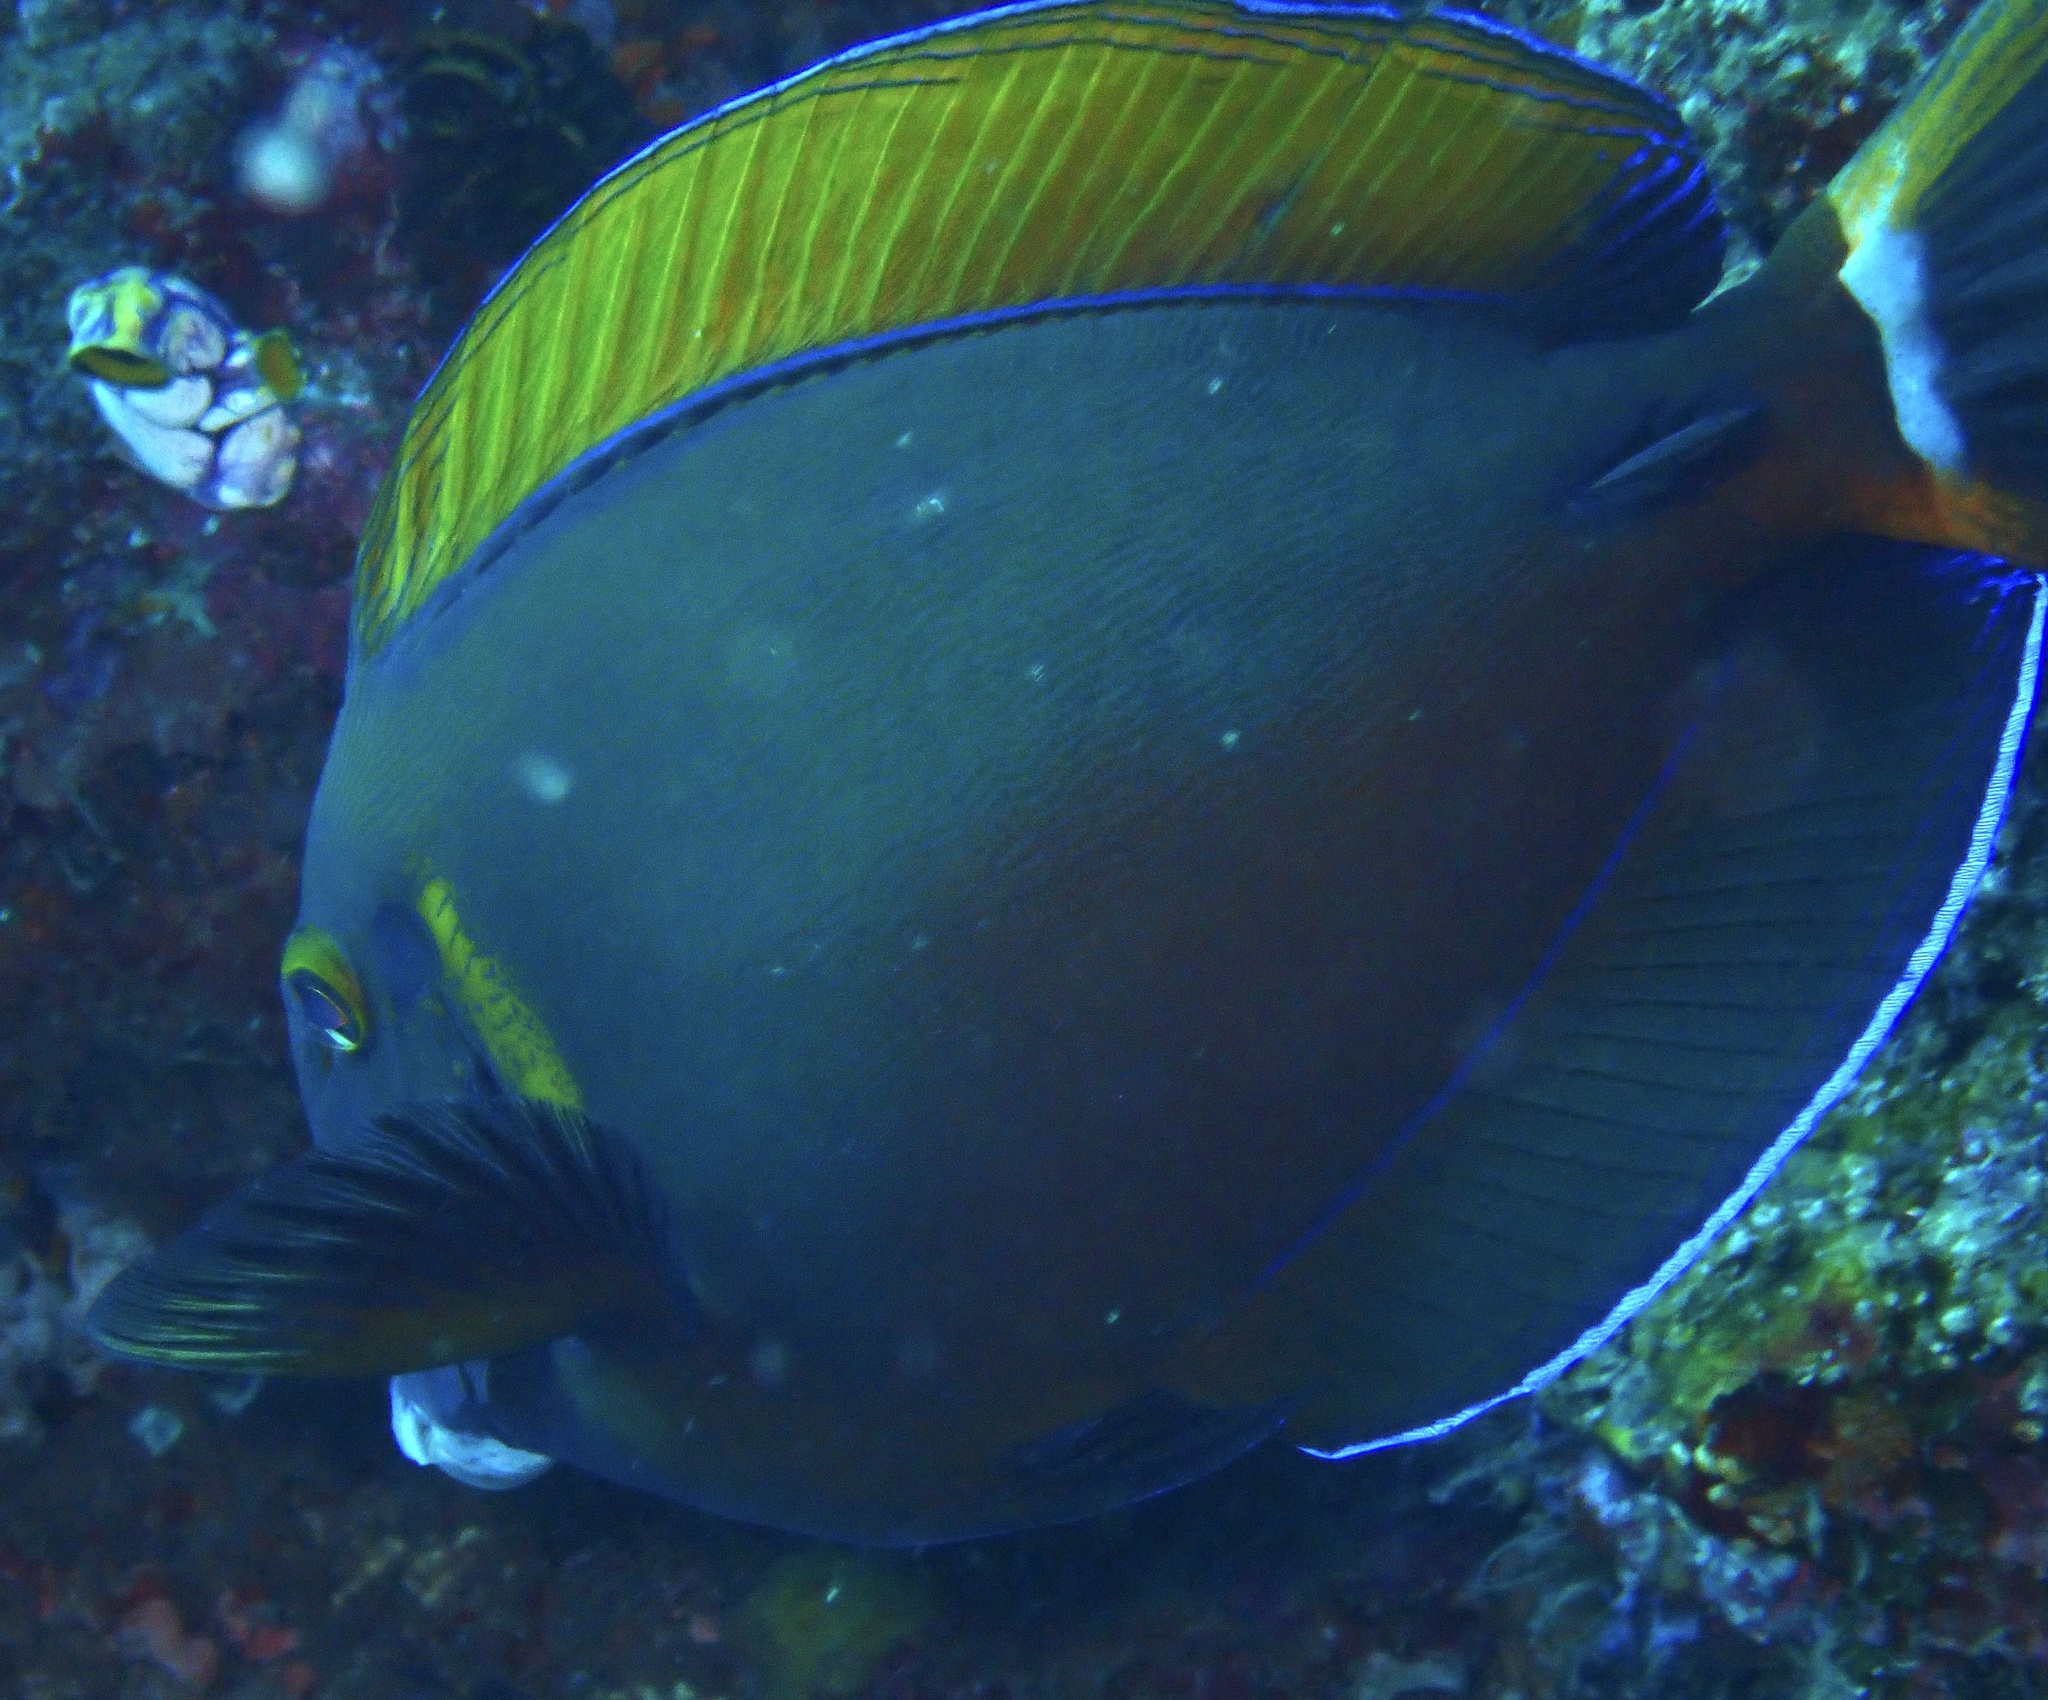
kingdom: Animalia
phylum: Chordata
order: Perciformes
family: Acanthuridae
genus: Acanthurus
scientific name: Acanthurus bariene
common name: Bariene surgeonfish
